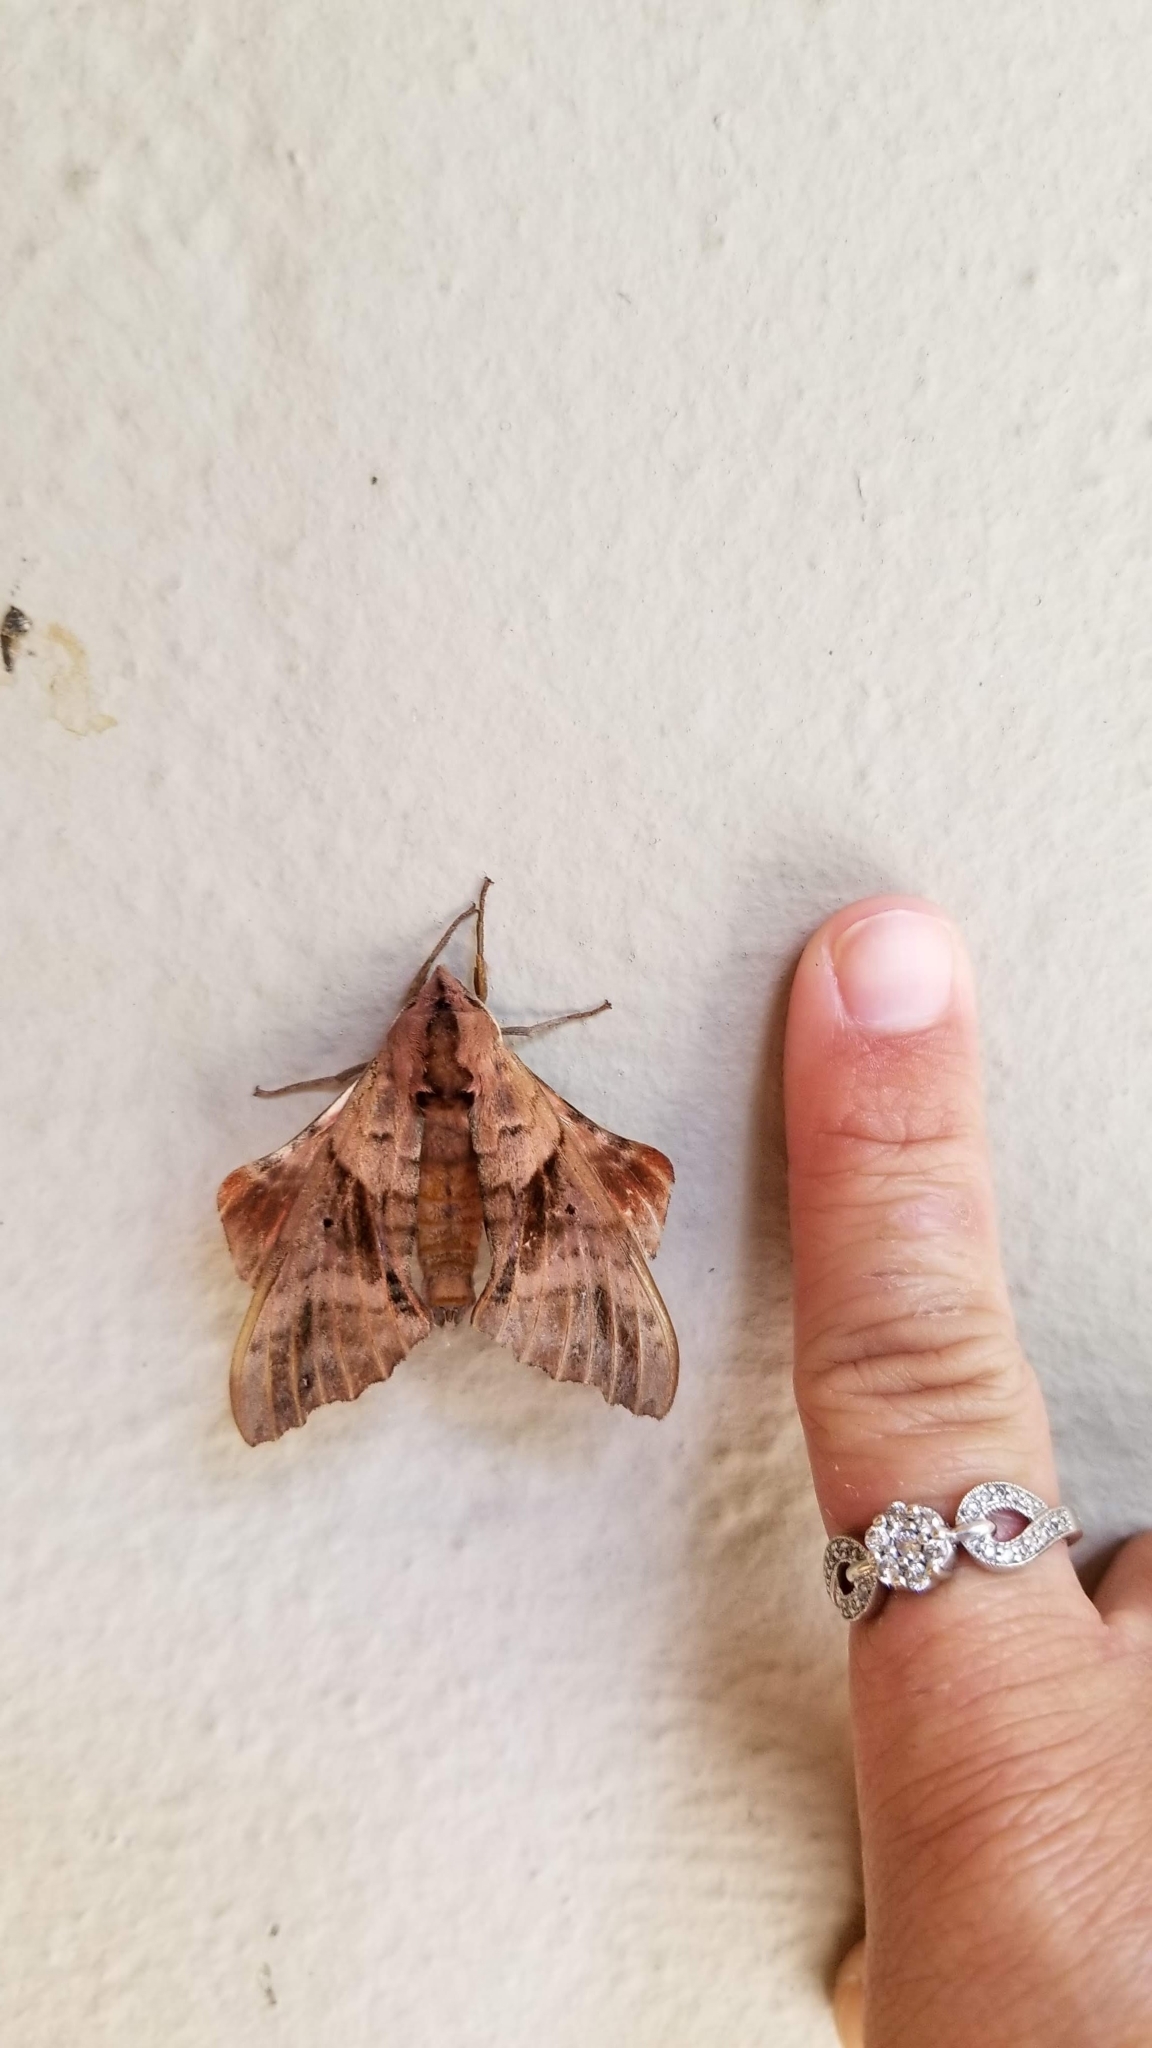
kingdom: Animalia
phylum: Arthropoda
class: Insecta
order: Lepidoptera
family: Sphingidae
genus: Paonias
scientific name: Paonias excaecata
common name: Blind-eyed sphinx
